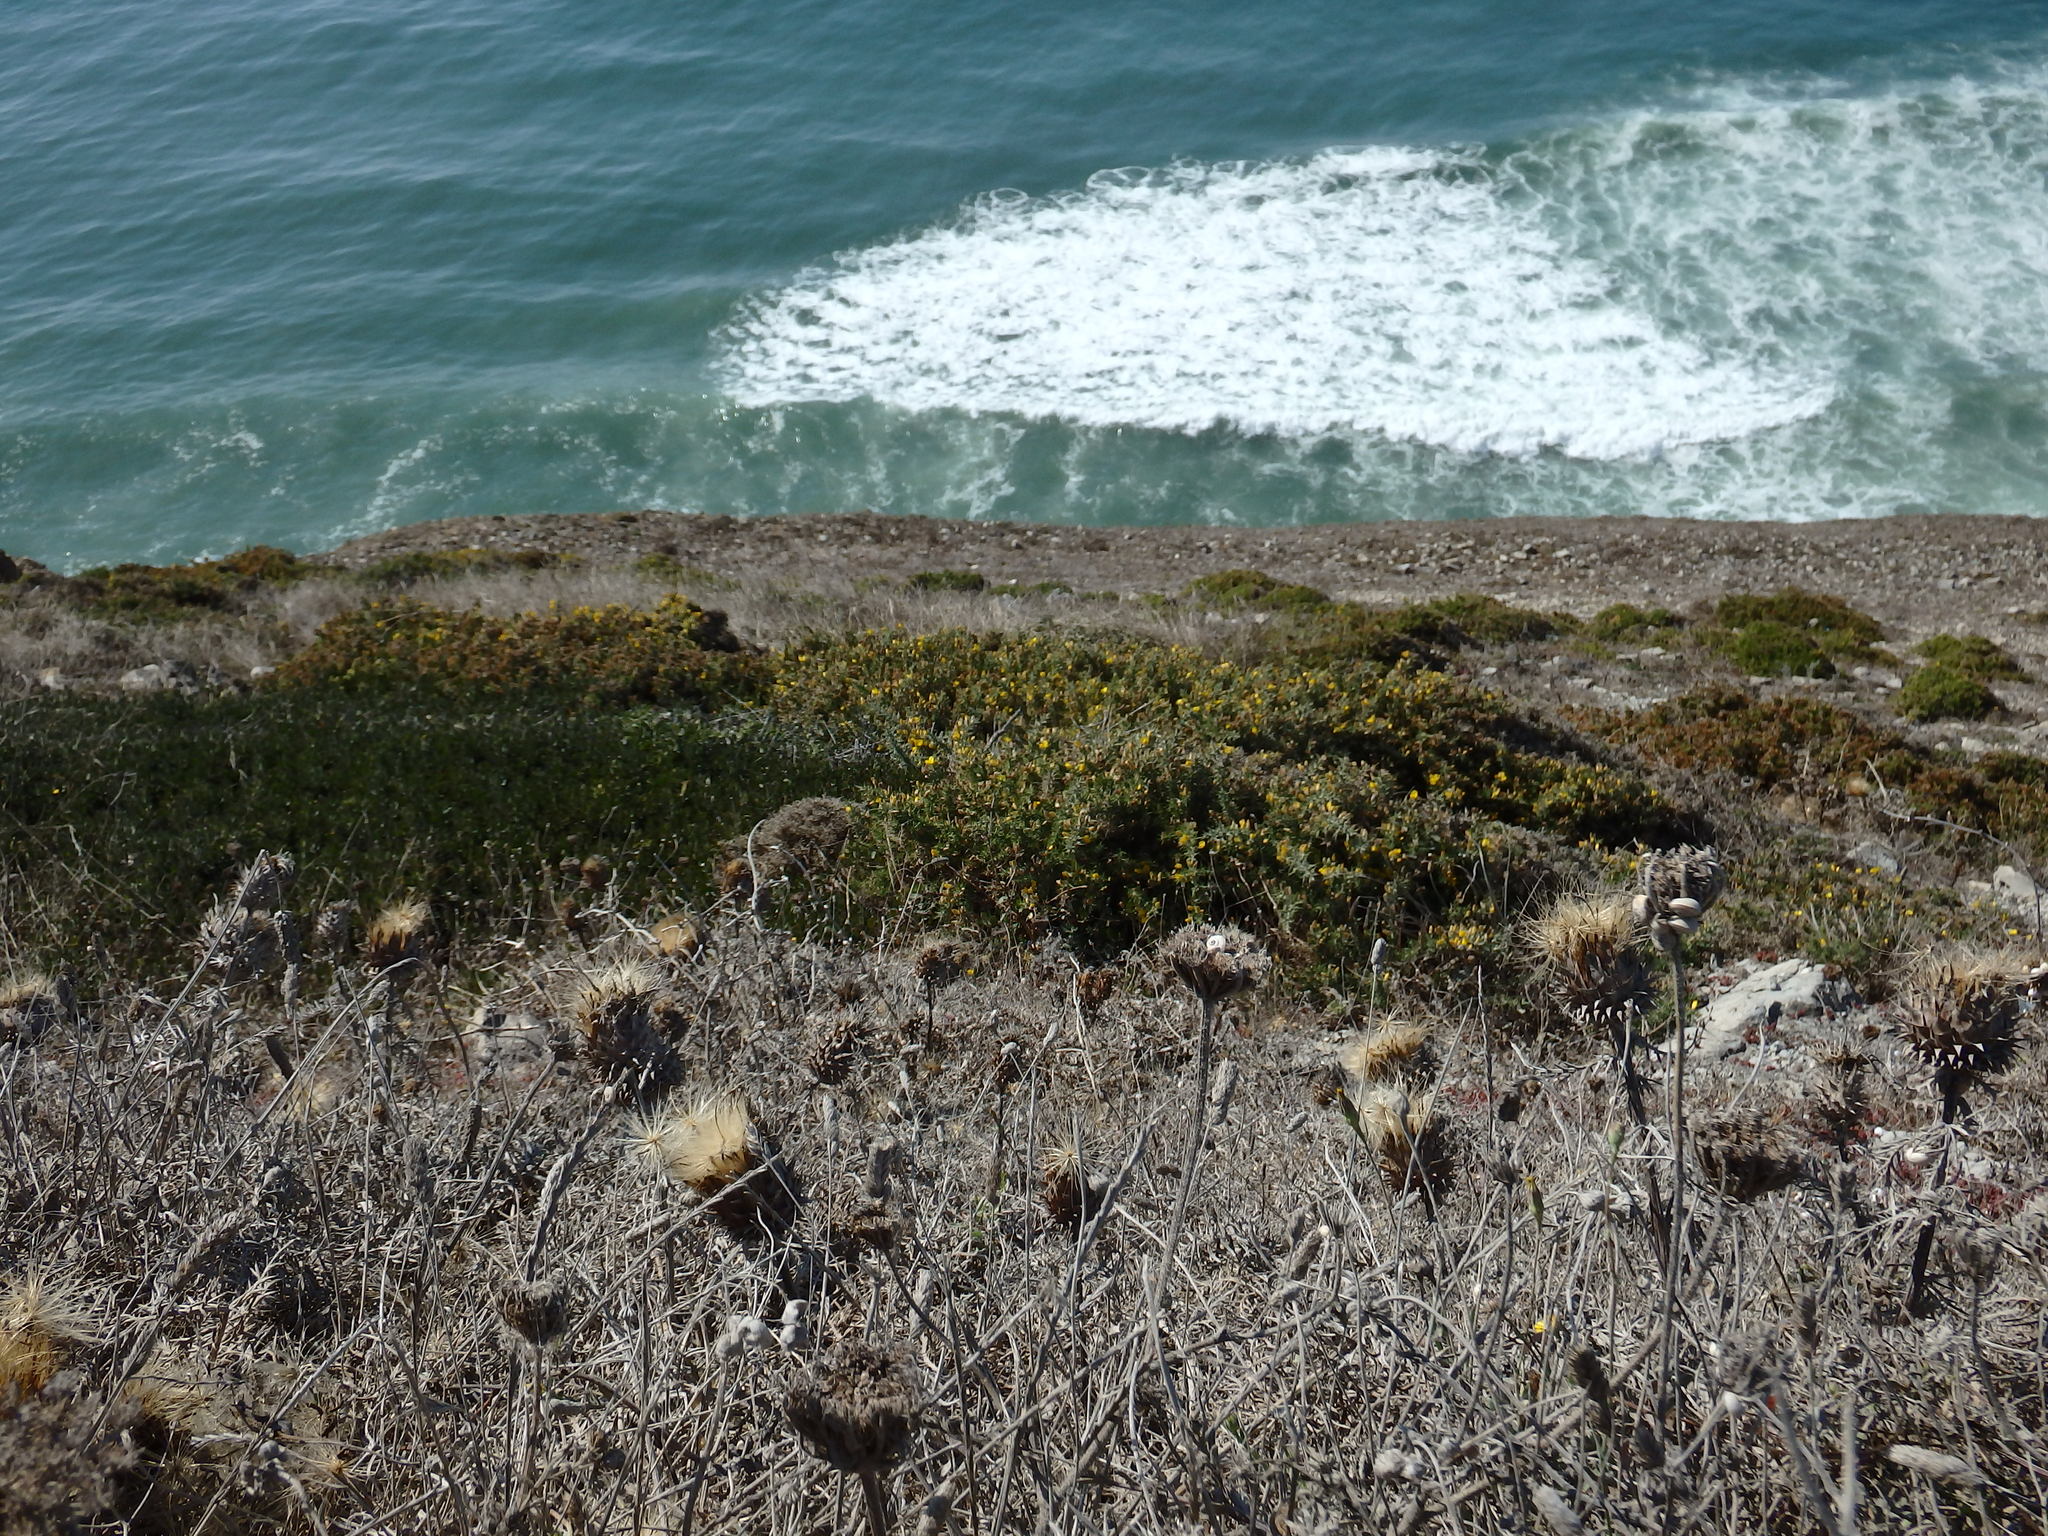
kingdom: Plantae
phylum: Tracheophyta
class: Magnoliopsida
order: Asterales
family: Asteraceae
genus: Cynara
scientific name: Cynara humilis
